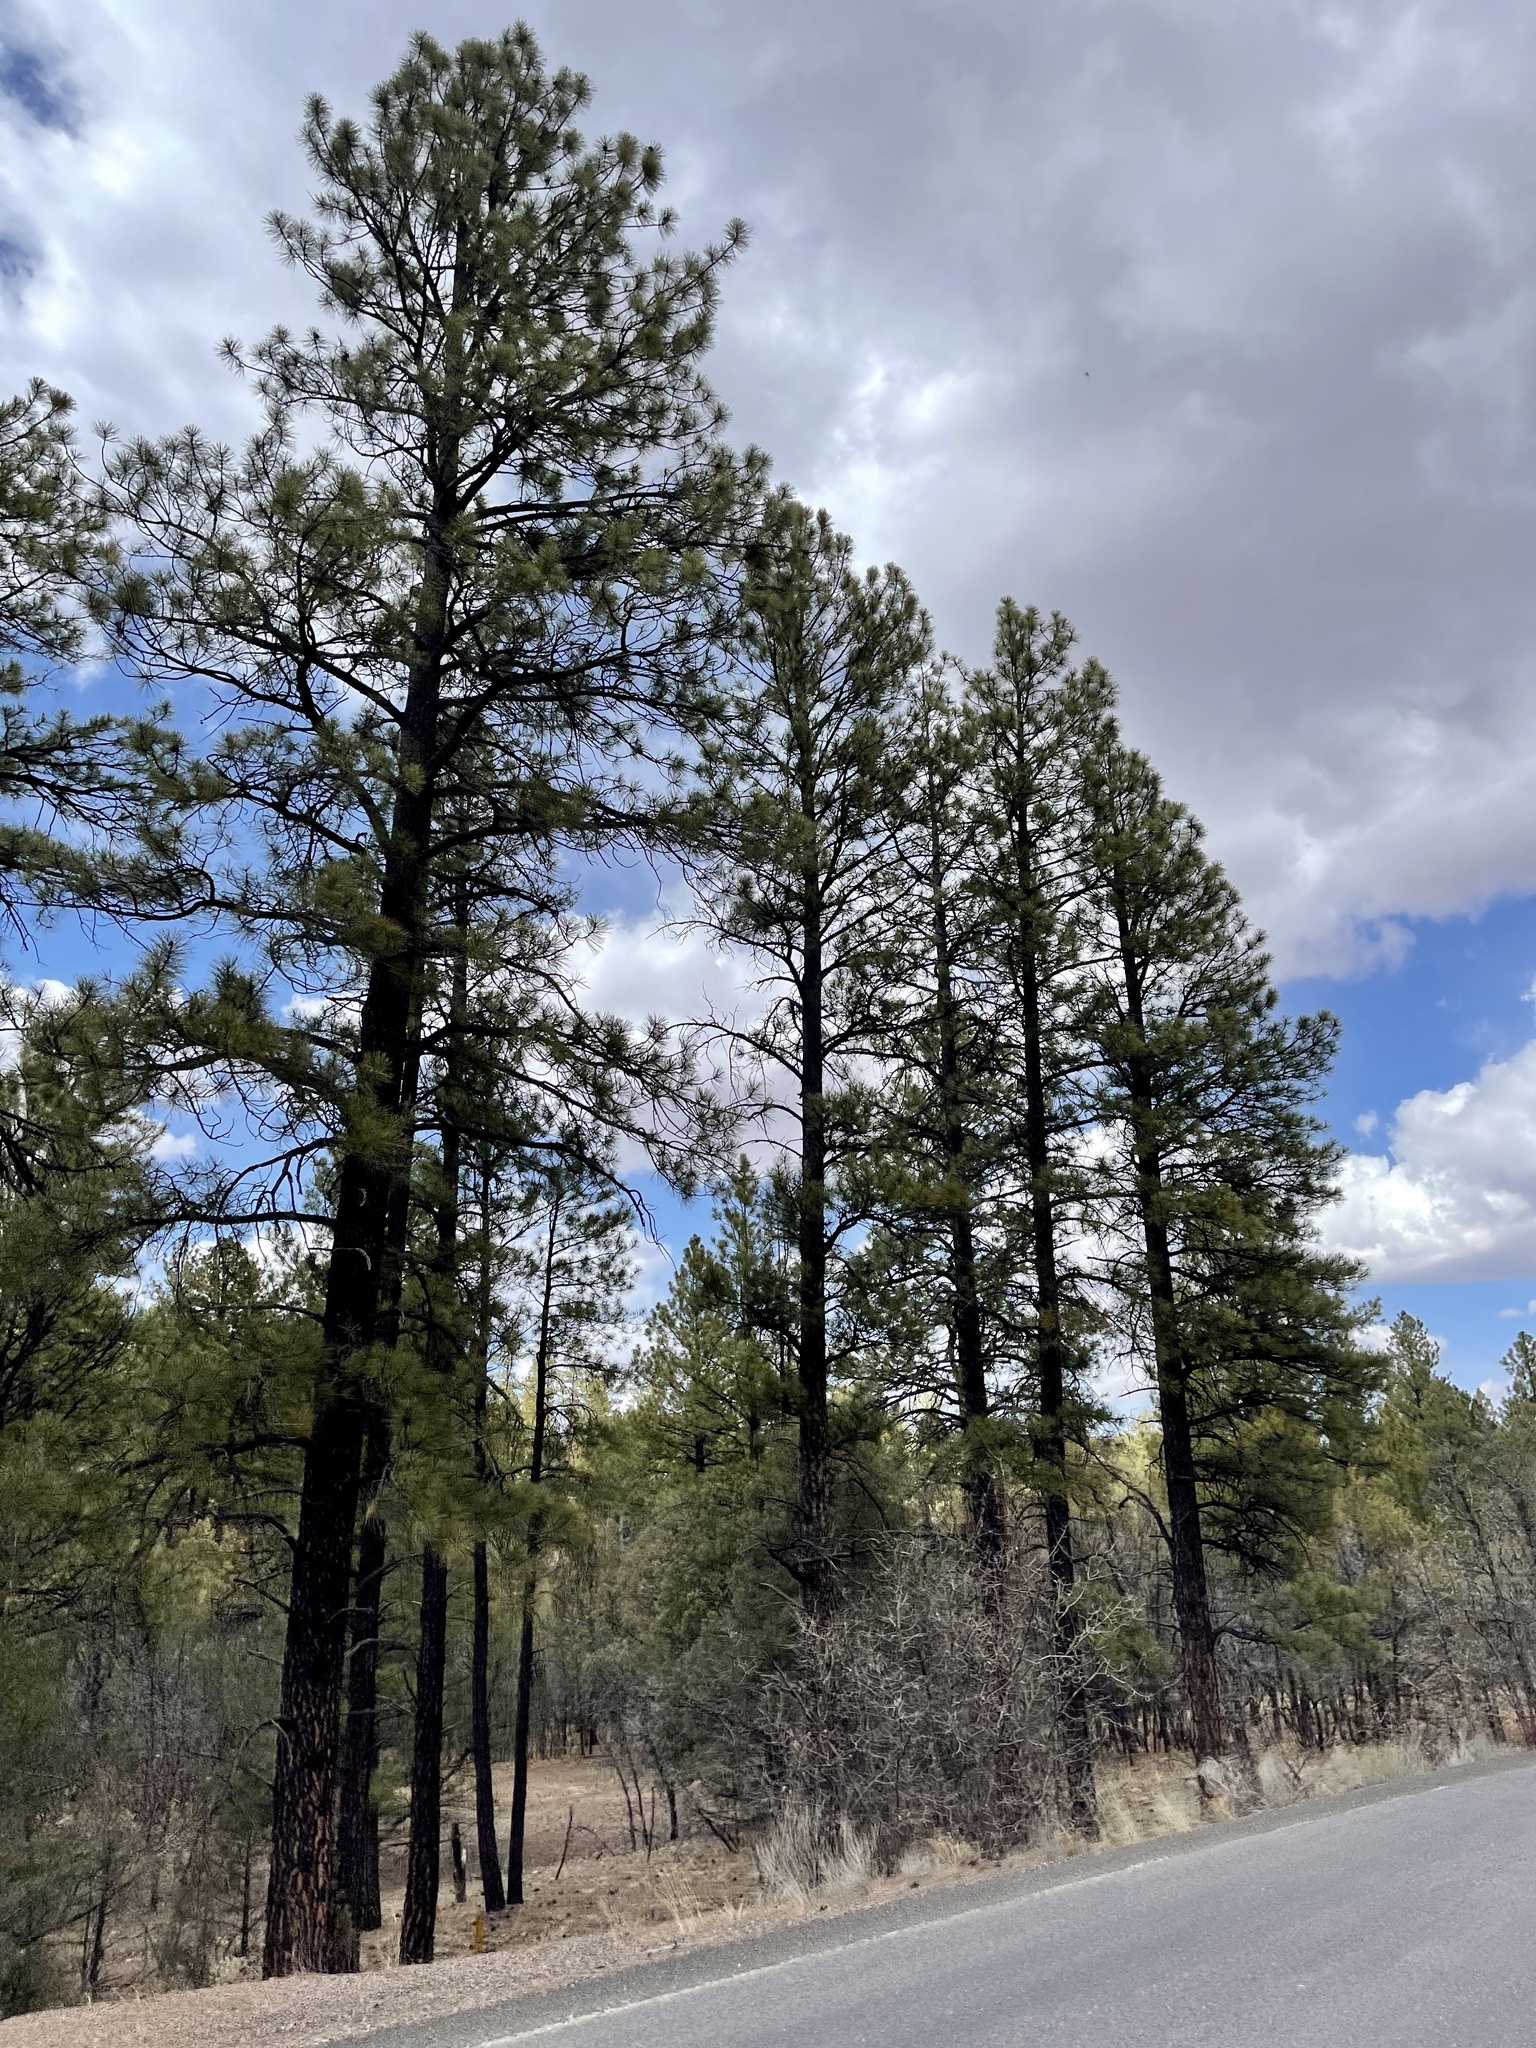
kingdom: Plantae
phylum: Tracheophyta
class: Pinopsida
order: Pinales
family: Pinaceae
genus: Pinus
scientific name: Pinus ponderosa
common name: Western yellow-pine
